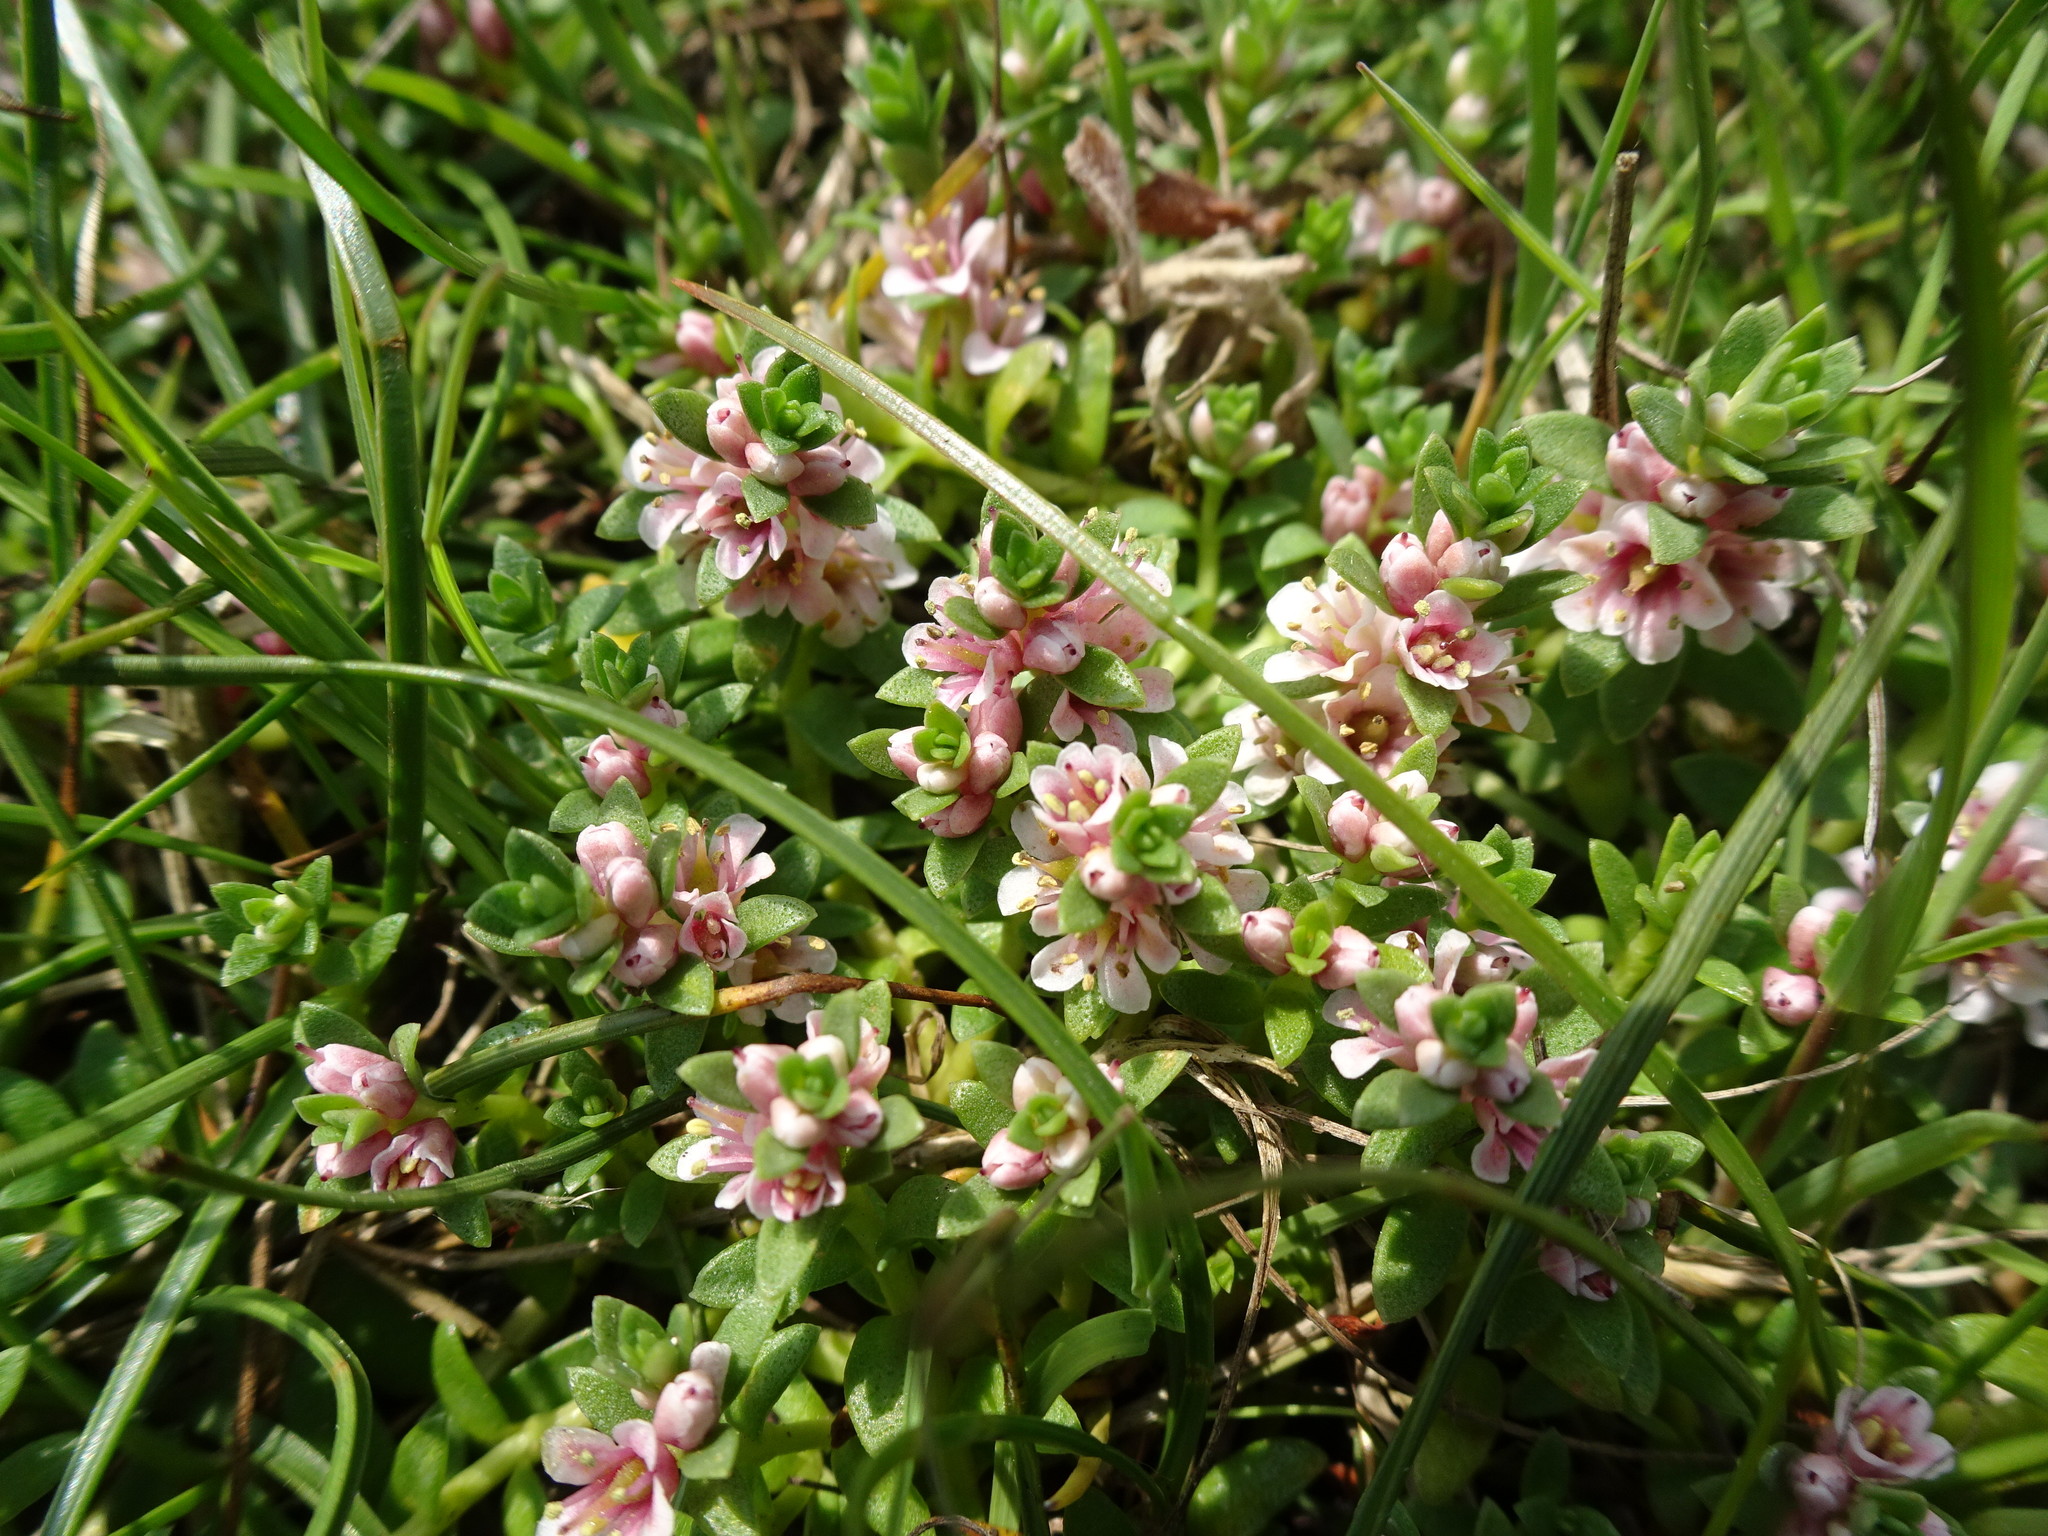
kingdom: Plantae
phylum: Tracheophyta
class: Magnoliopsida
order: Ericales
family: Primulaceae
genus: Lysimachia
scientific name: Lysimachia maritima
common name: Sea milkwort
